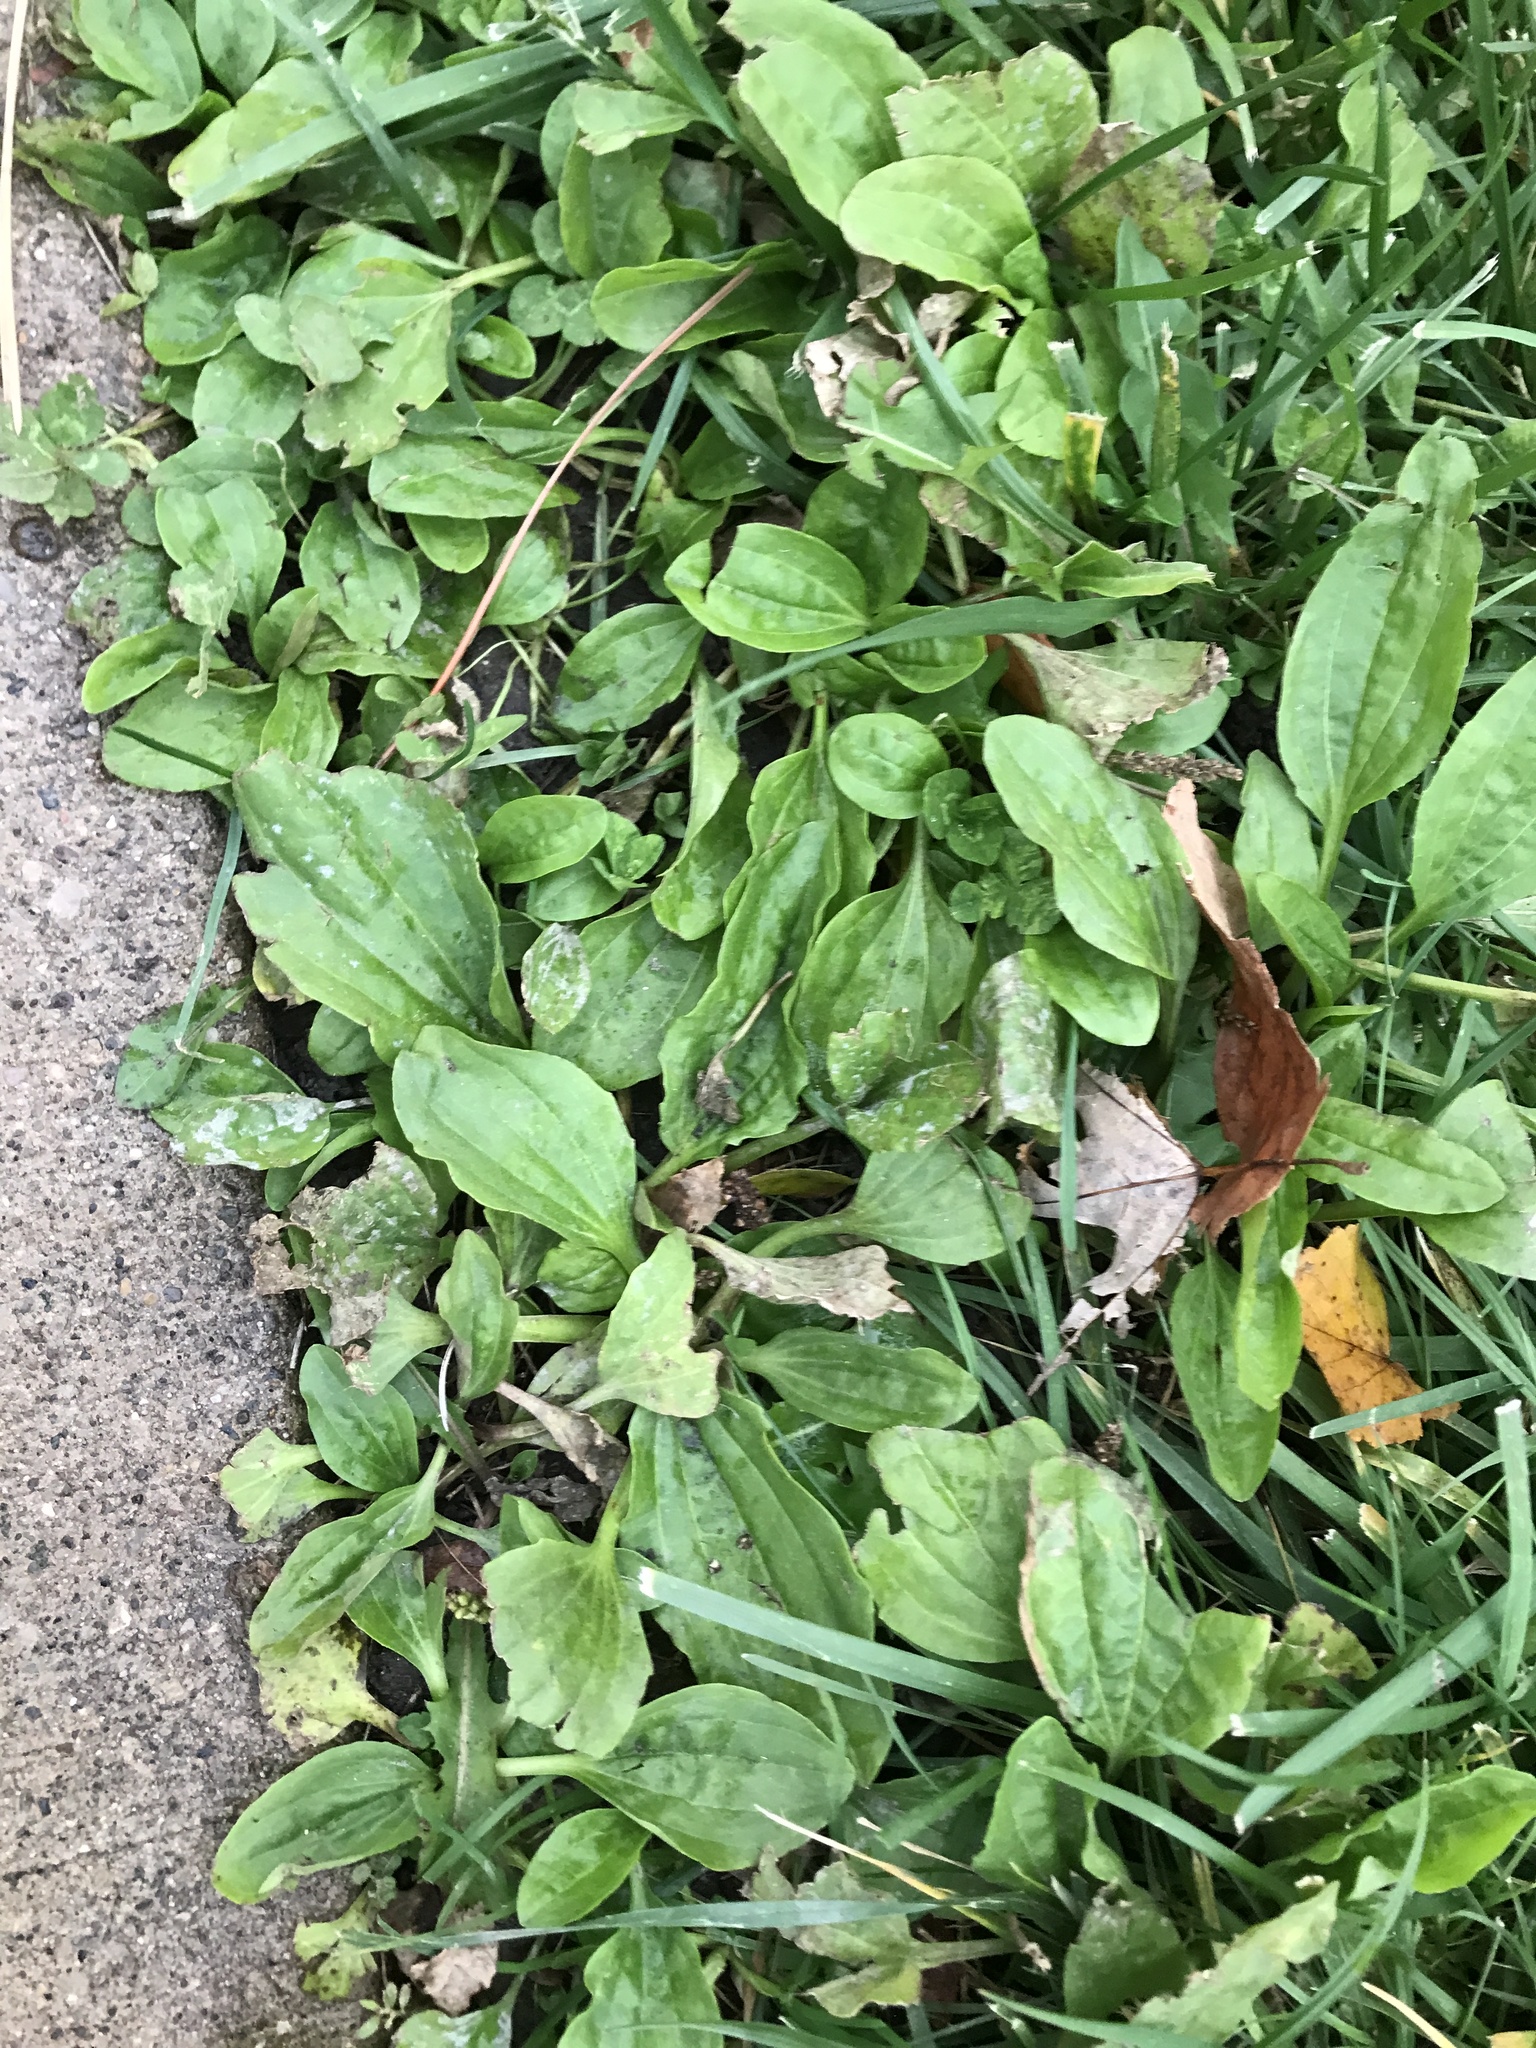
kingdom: Plantae
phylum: Tracheophyta
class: Magnoliopsida
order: Lamiales
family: Plantaginaceae
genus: Plantago
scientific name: Plantago rugelii
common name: American plantain
